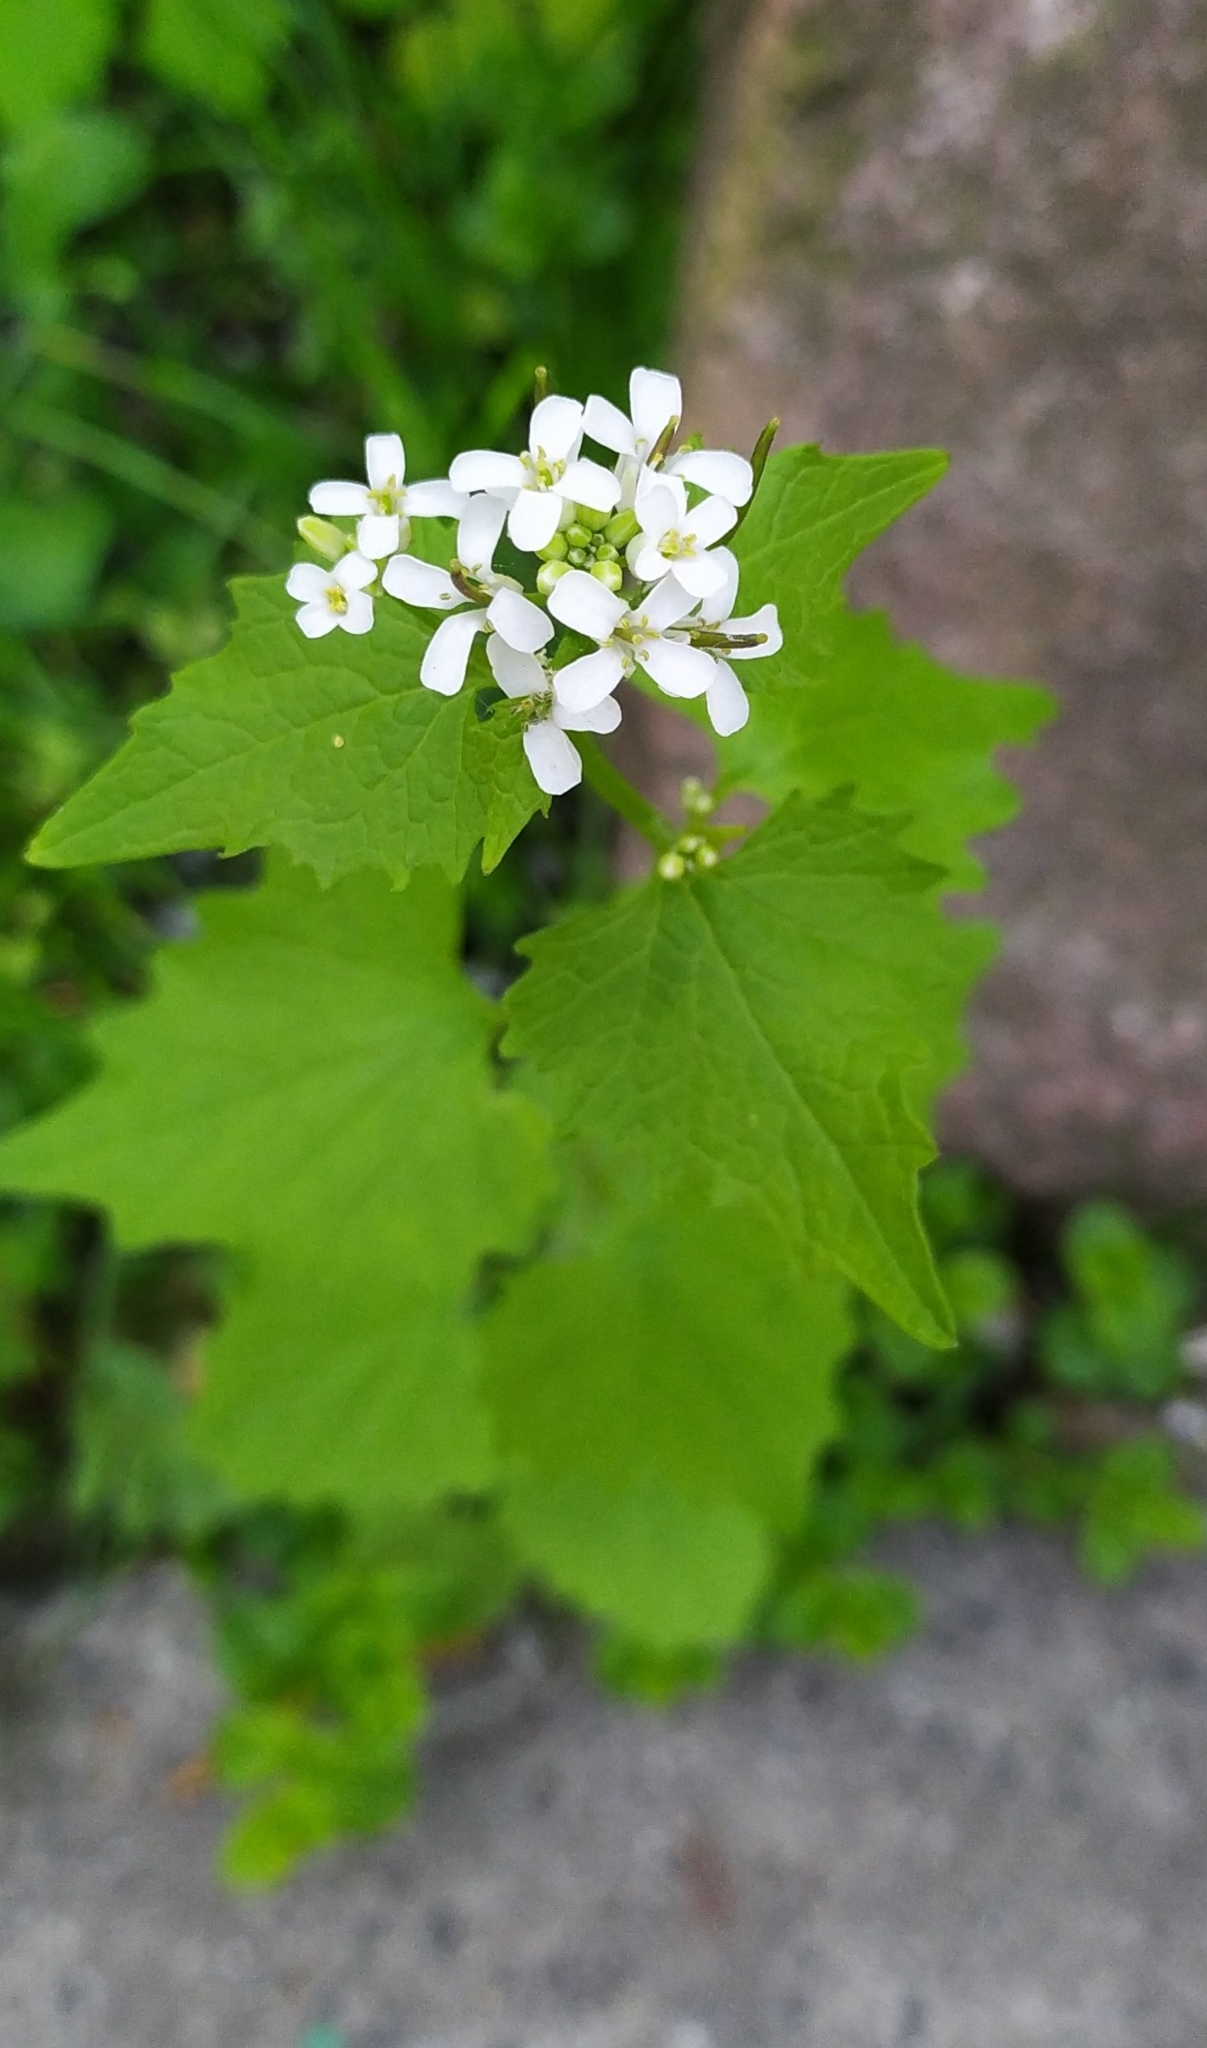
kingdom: Plantae
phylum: Tracheophyta
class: Magnoliopsida
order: Brassicales
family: Brassicaceae
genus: Alliaria
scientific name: Alliaria petiolata
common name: Garlic mustard
